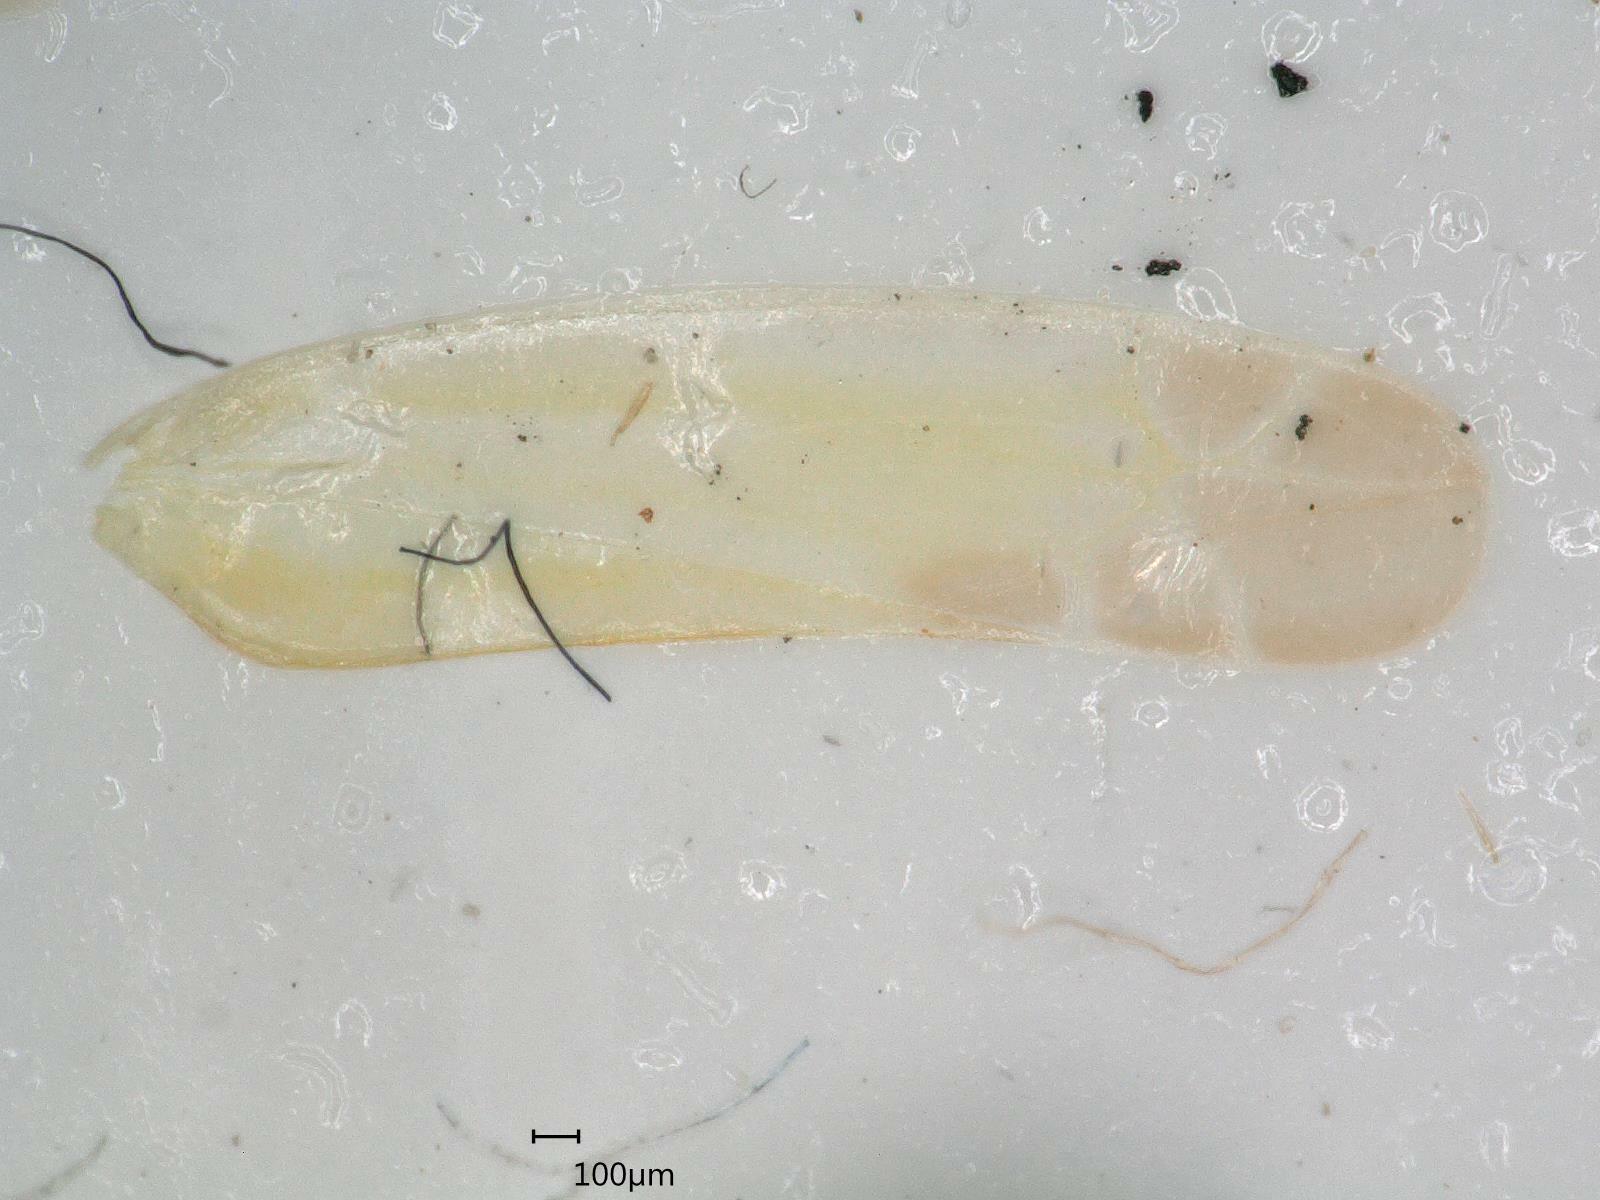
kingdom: Animalia
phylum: Arthropoda
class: Insecta
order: Hemiptera
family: Cicadellidae
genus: Lindbergina
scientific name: Lindbergina aurovittata
